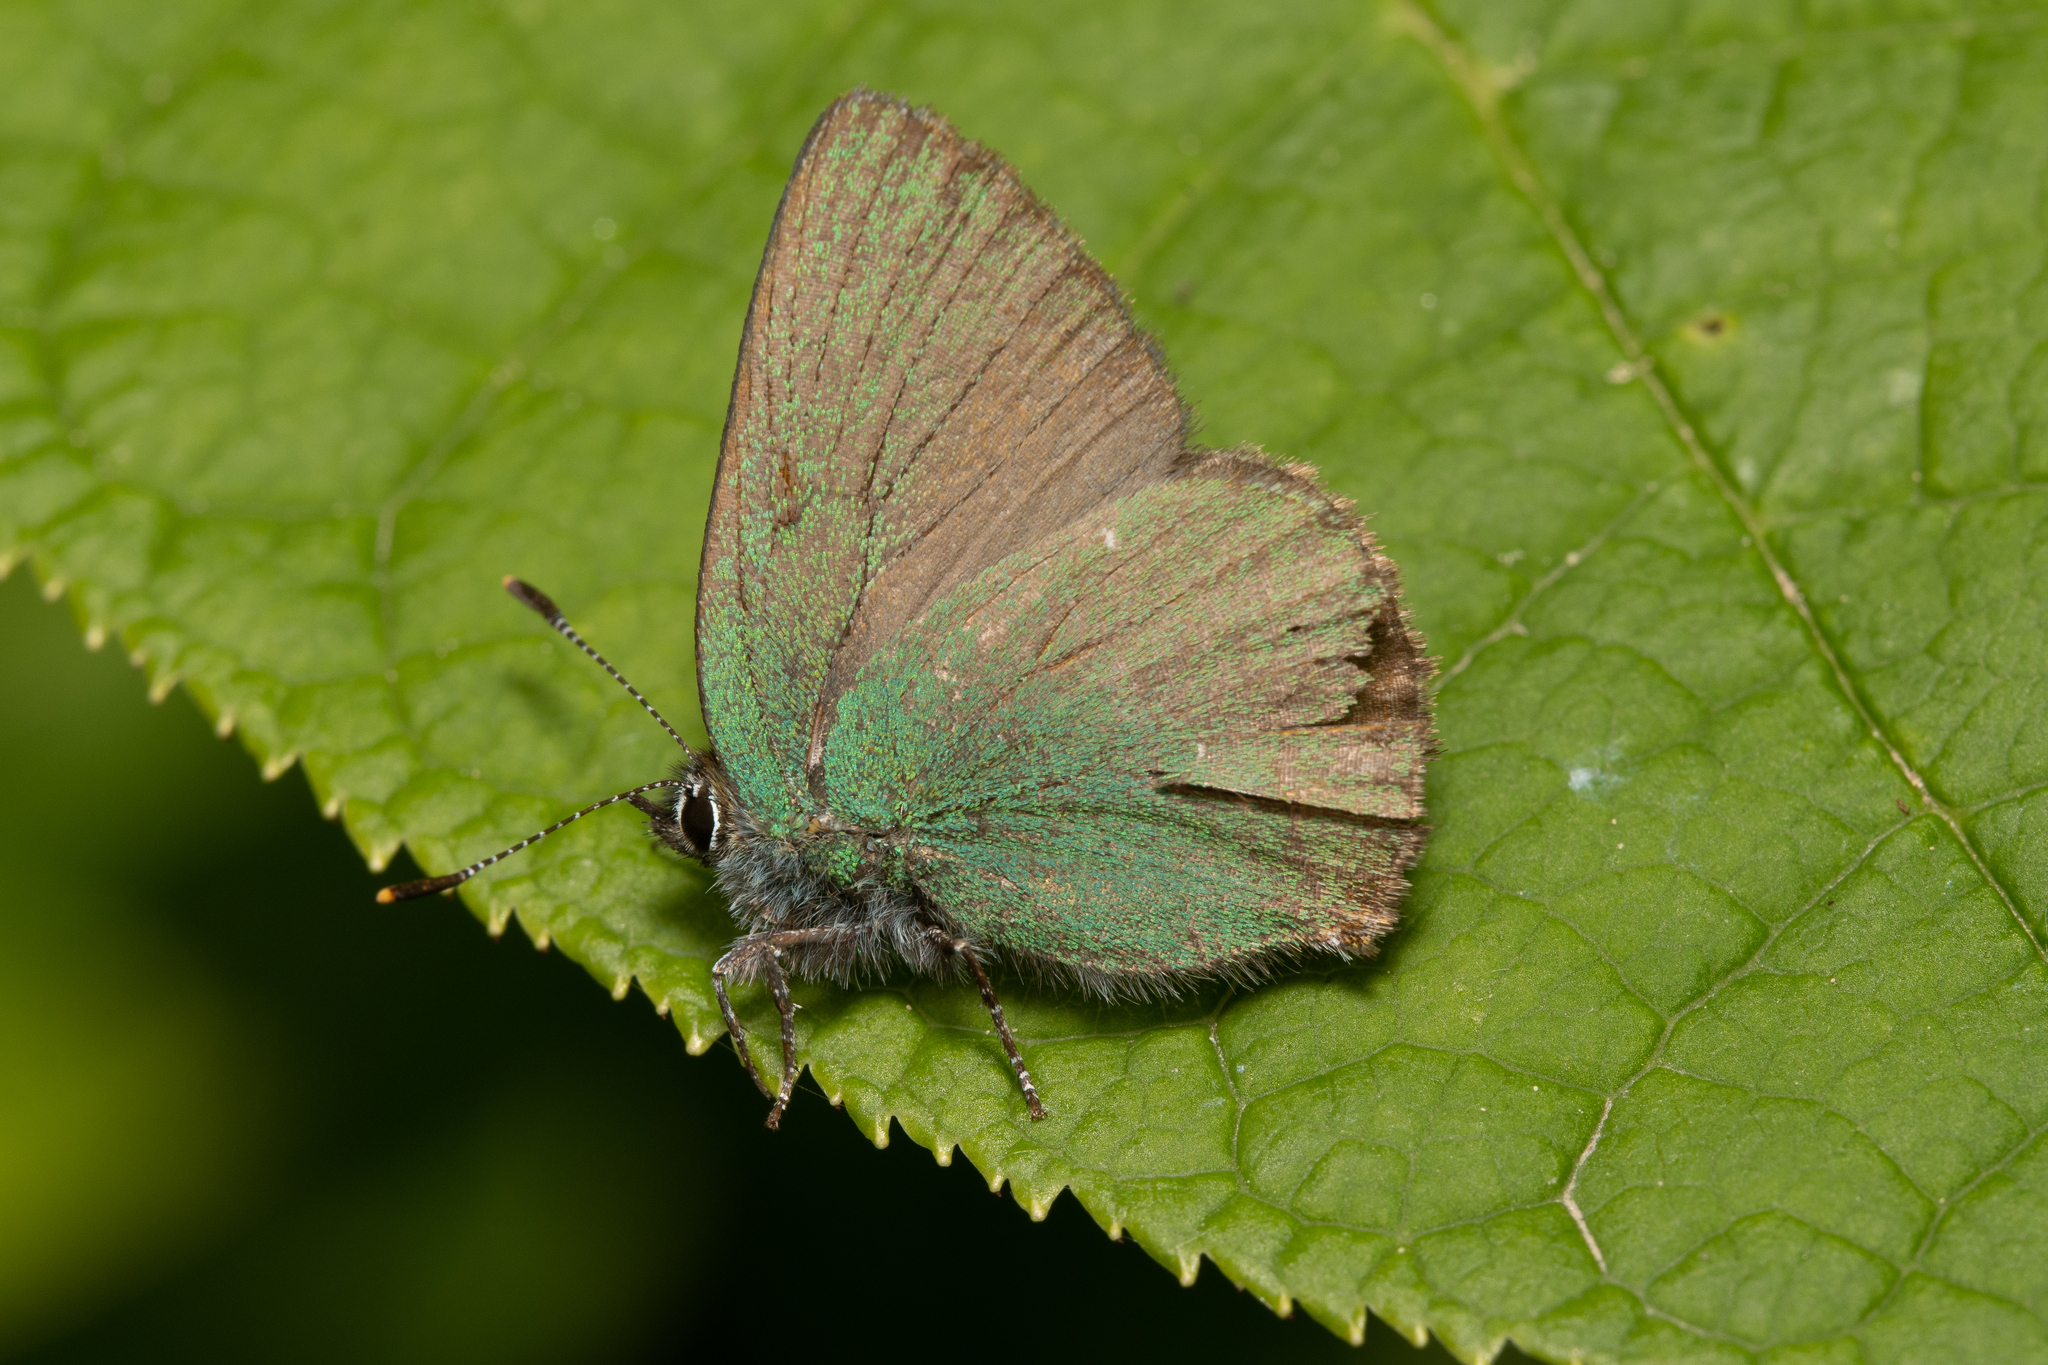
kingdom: Animalia
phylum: Arthropoda
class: Insecta
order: Lepidoptera
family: Lycaenidae
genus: Callophrys
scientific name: Callophrys rubi
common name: Green hairstreak
